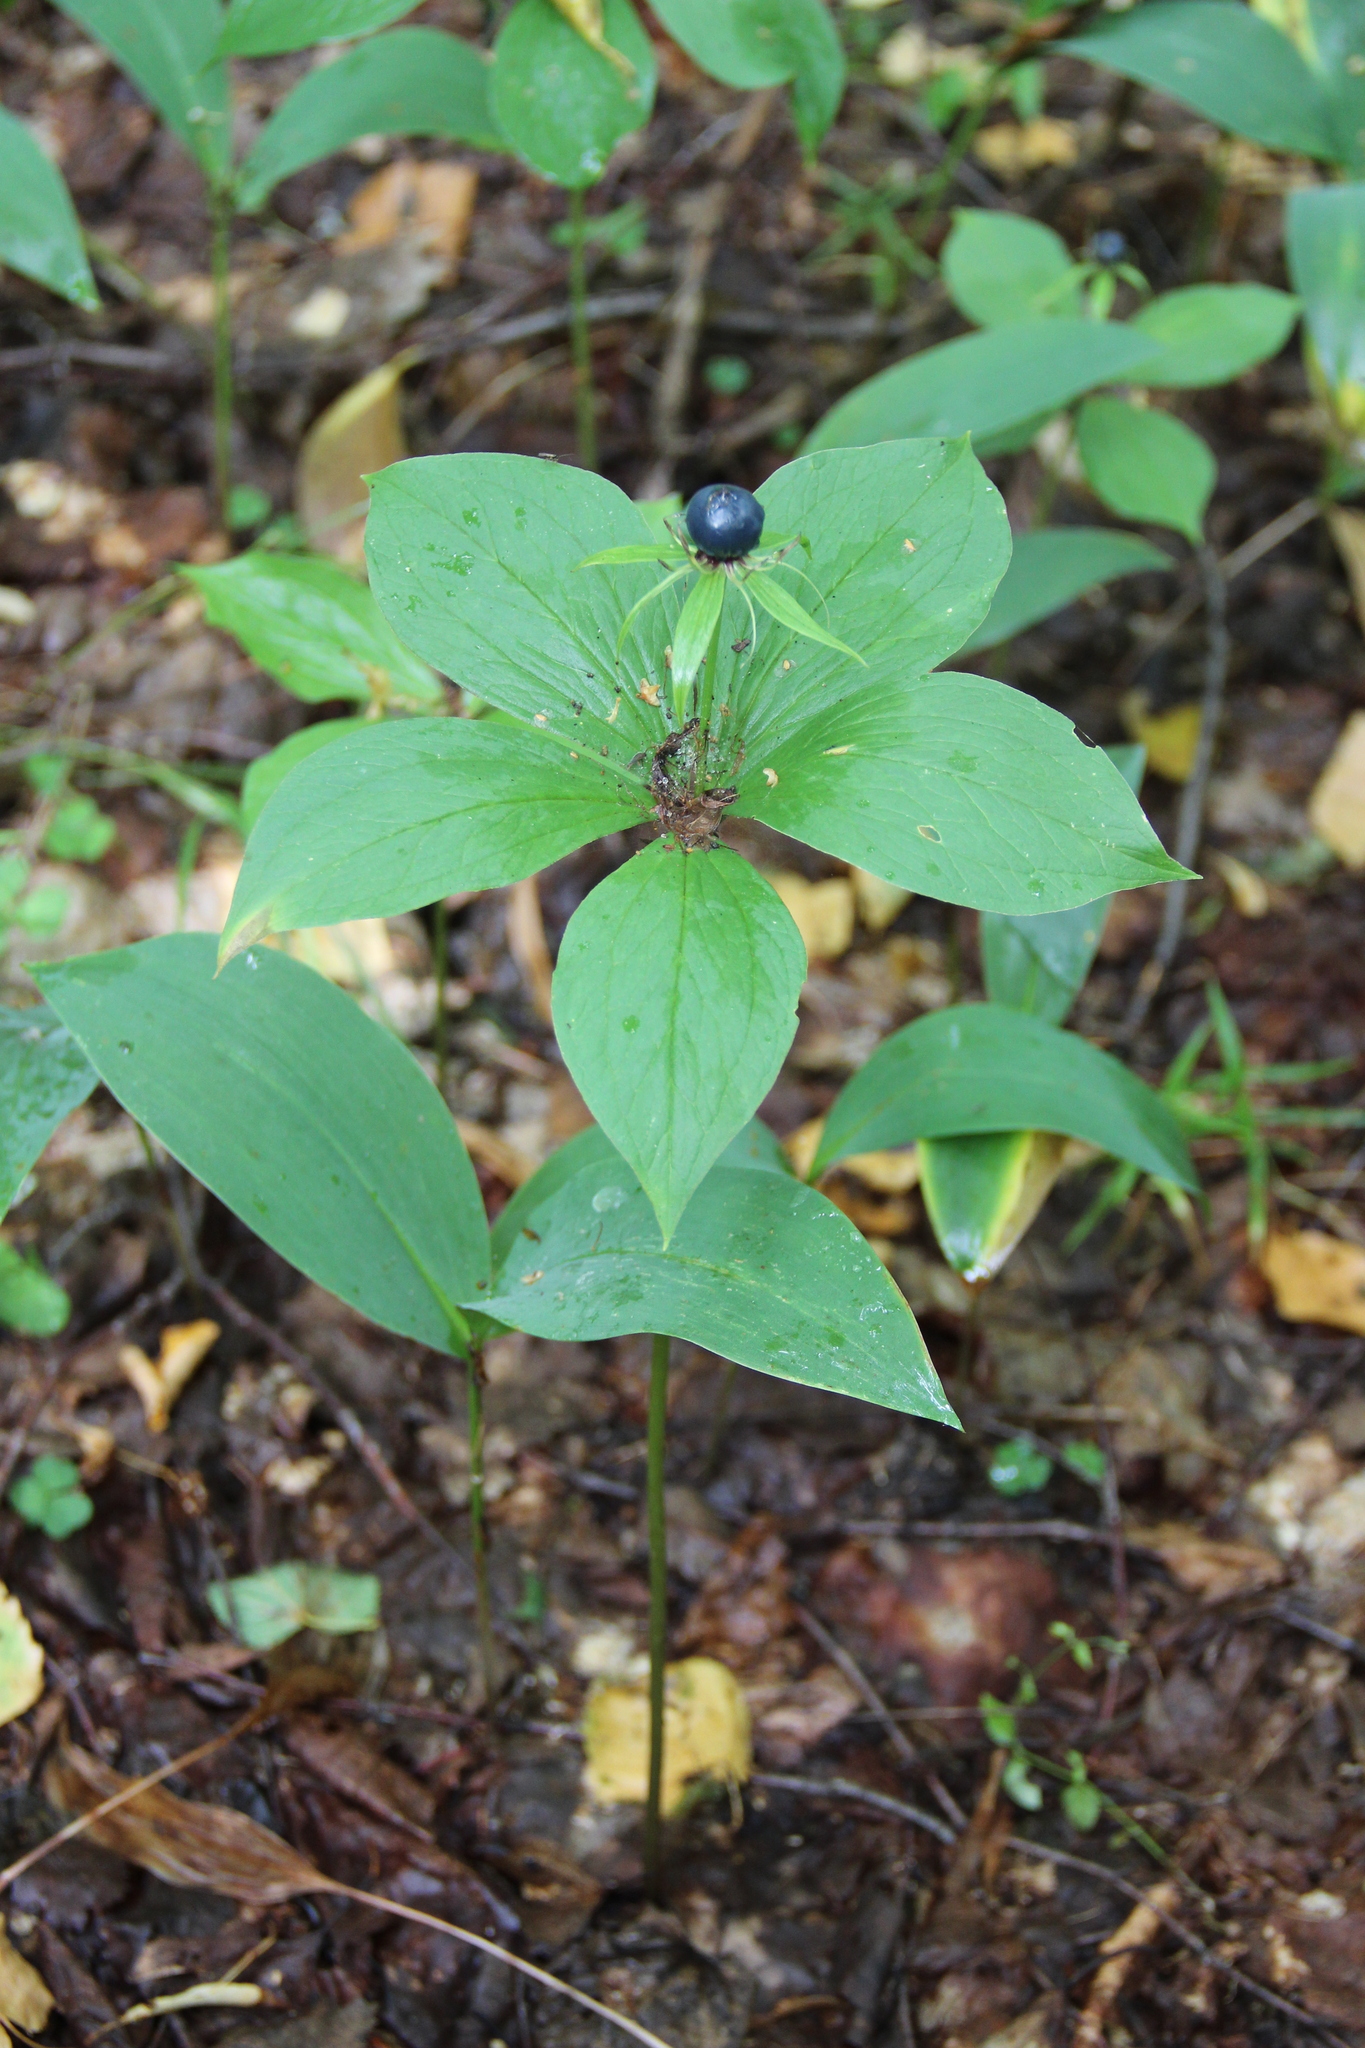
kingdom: Plantae
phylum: Tracheophyta
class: Liliopsida
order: Liliales
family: Melanthiaceae
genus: Paris
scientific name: Paris quadrifolia
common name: Herb-paris
